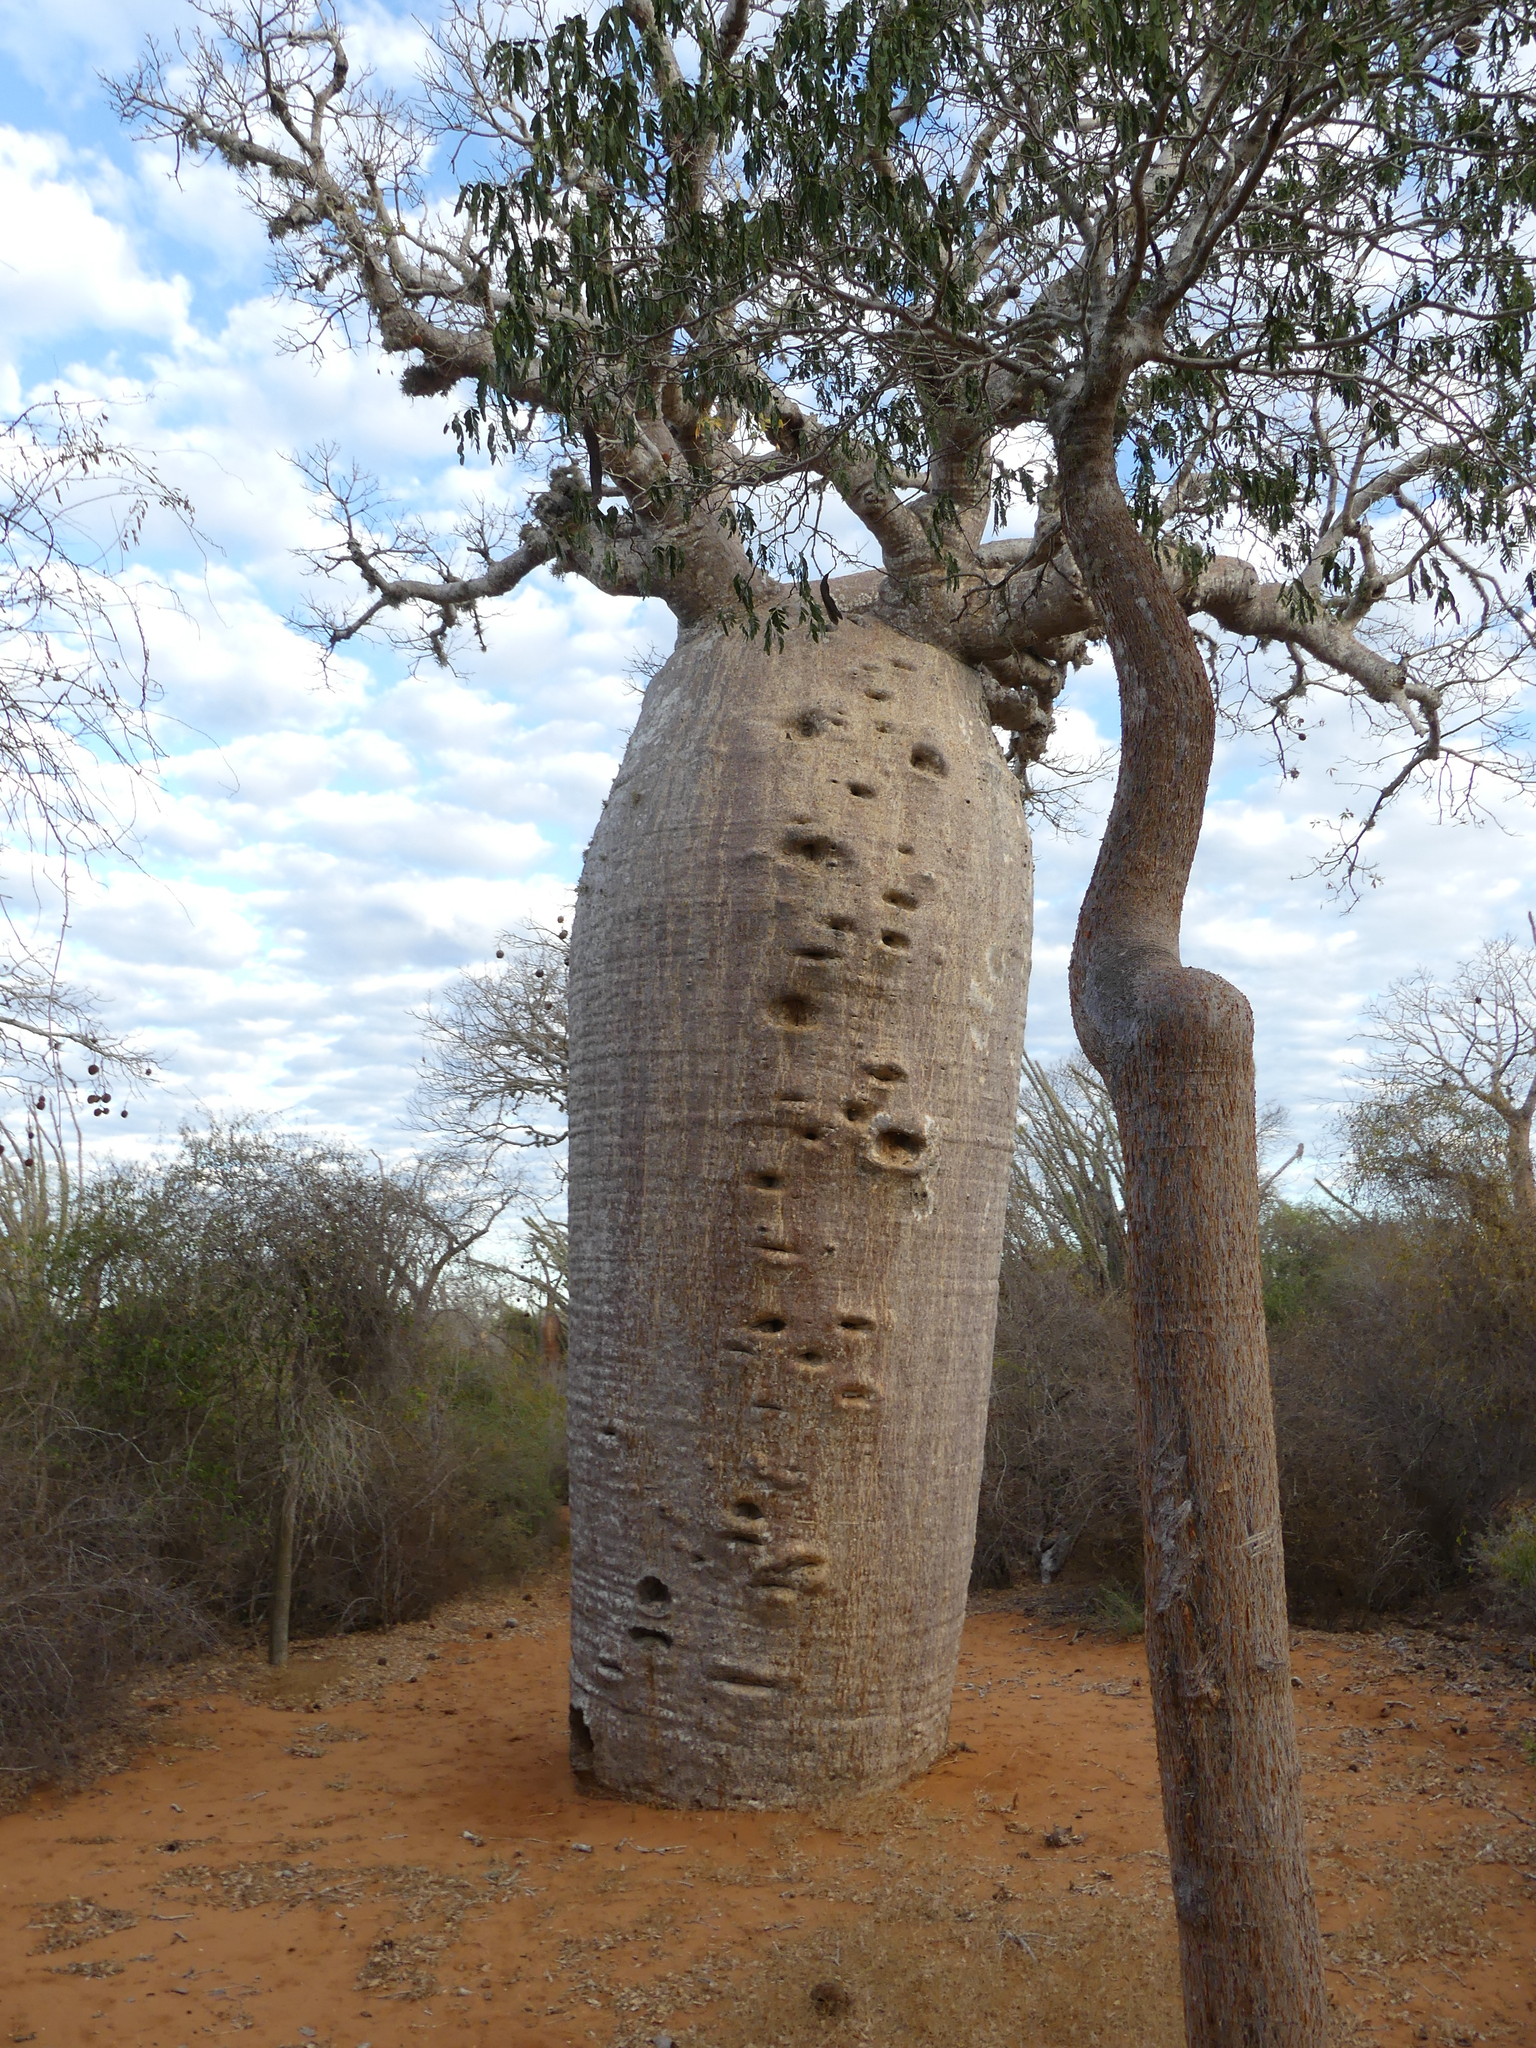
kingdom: Plantae
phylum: Tracheophyta
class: Magnoliopsida
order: Malvales
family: Malvaceae
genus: Adansonia
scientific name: Adansonia rubrostipa
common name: Fony baobab
